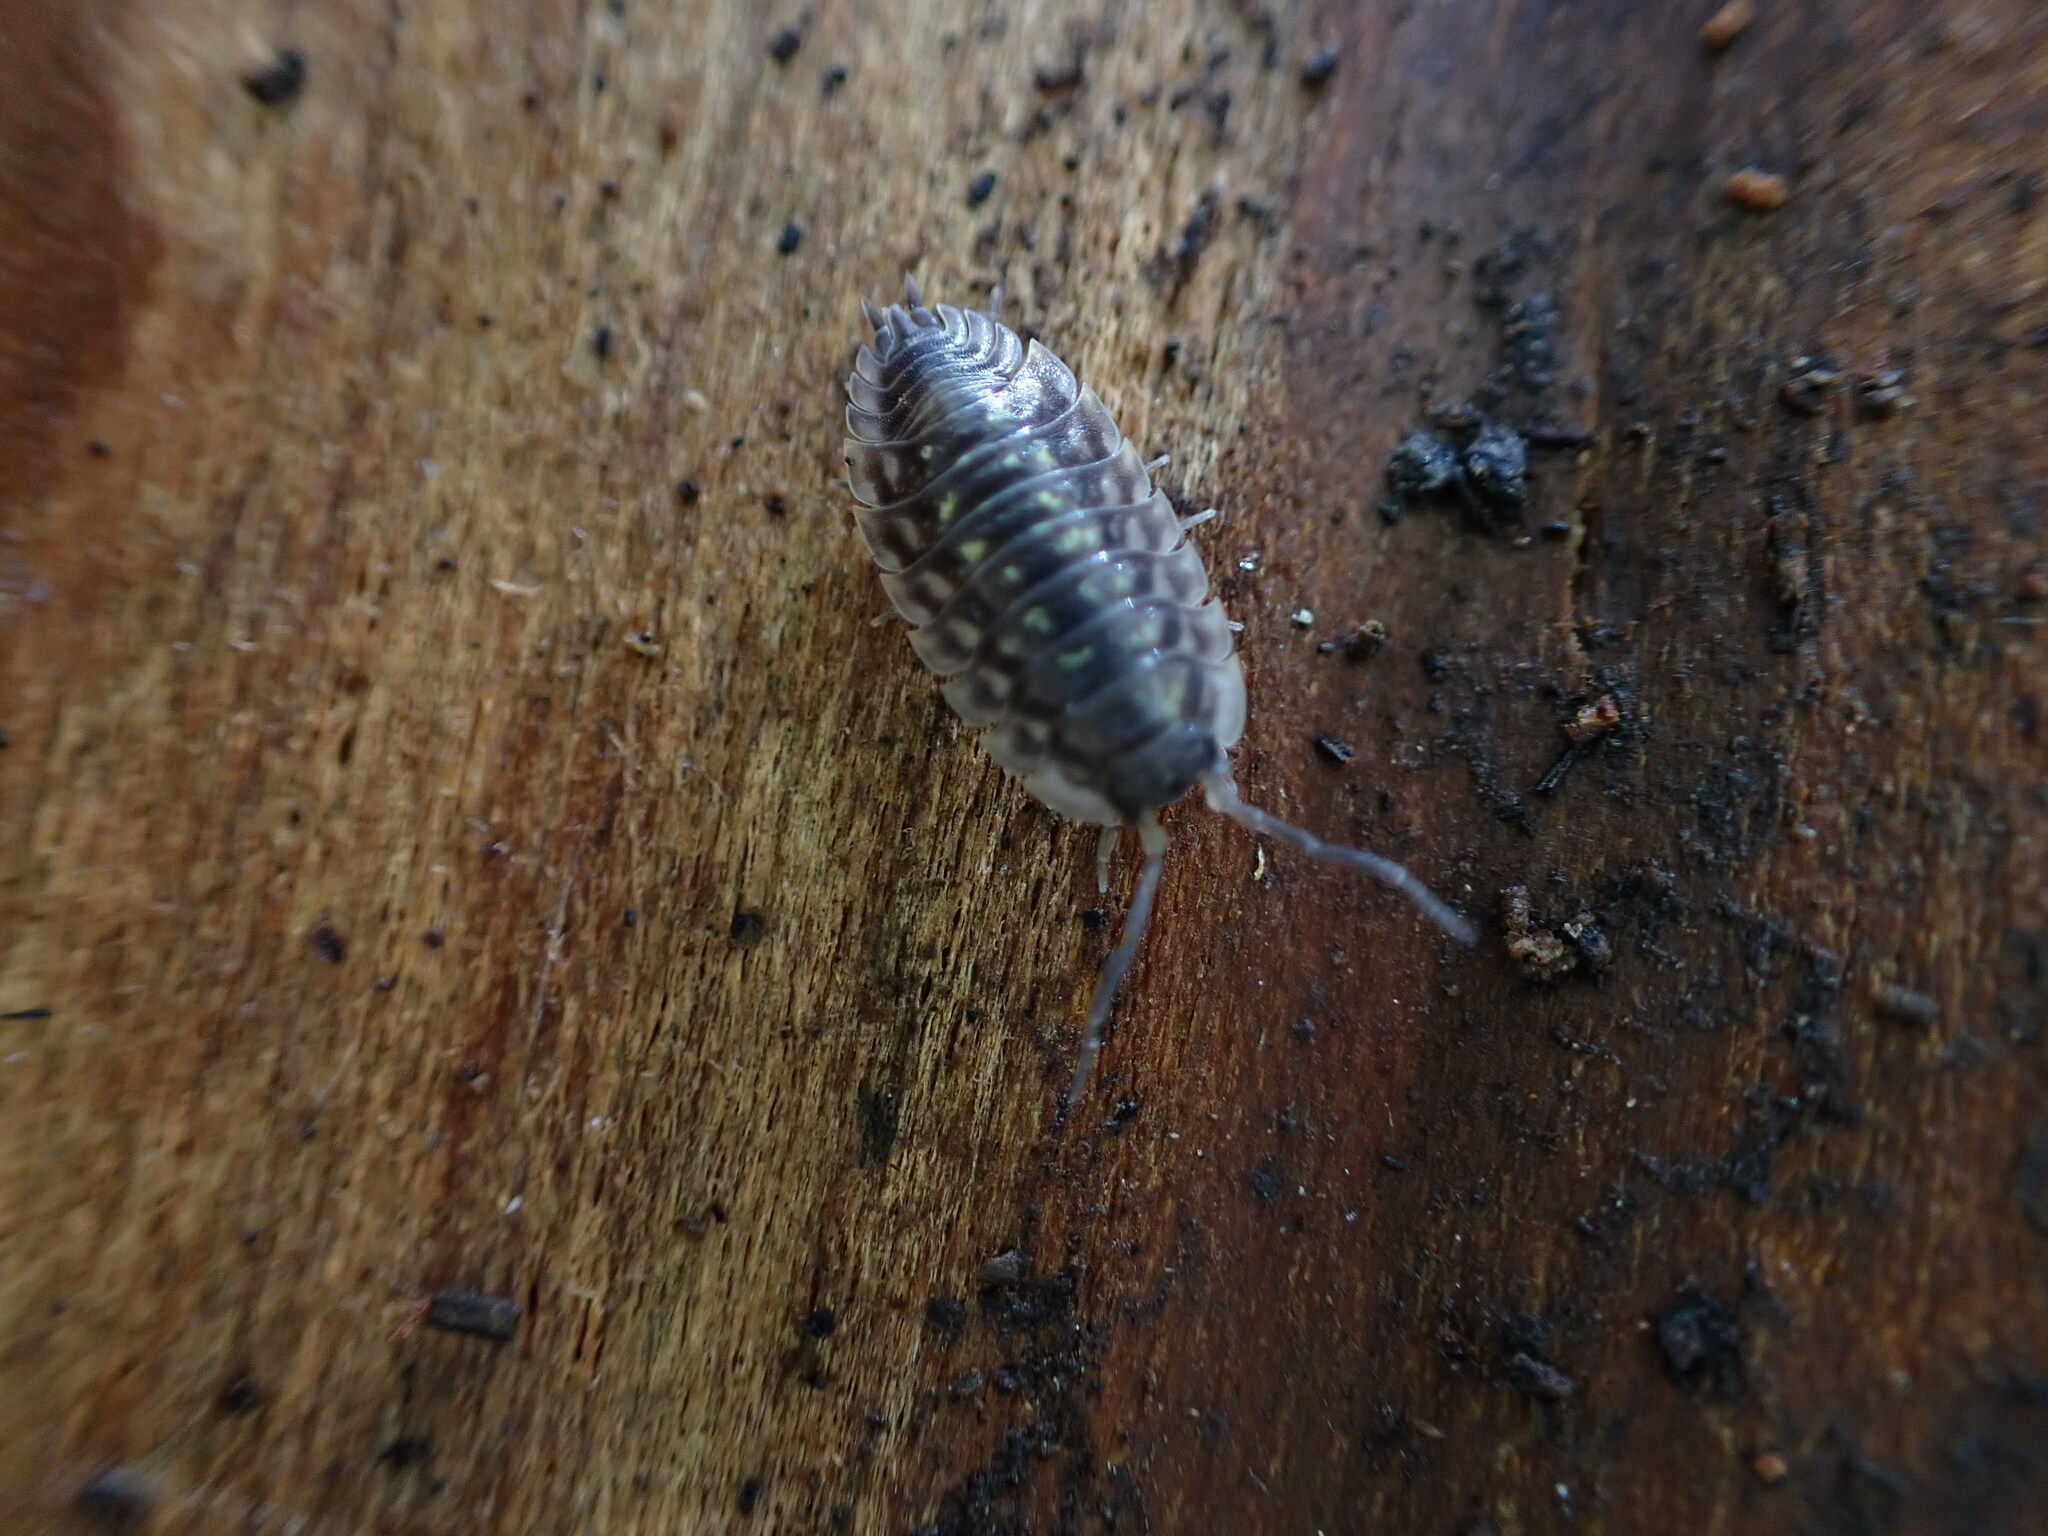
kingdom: Animalia
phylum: Arthropoda
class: Malacostraca
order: Isopoda
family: Oniscidae
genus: Oniscus
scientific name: Oniscus asellus
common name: Common shiny woodlouse
